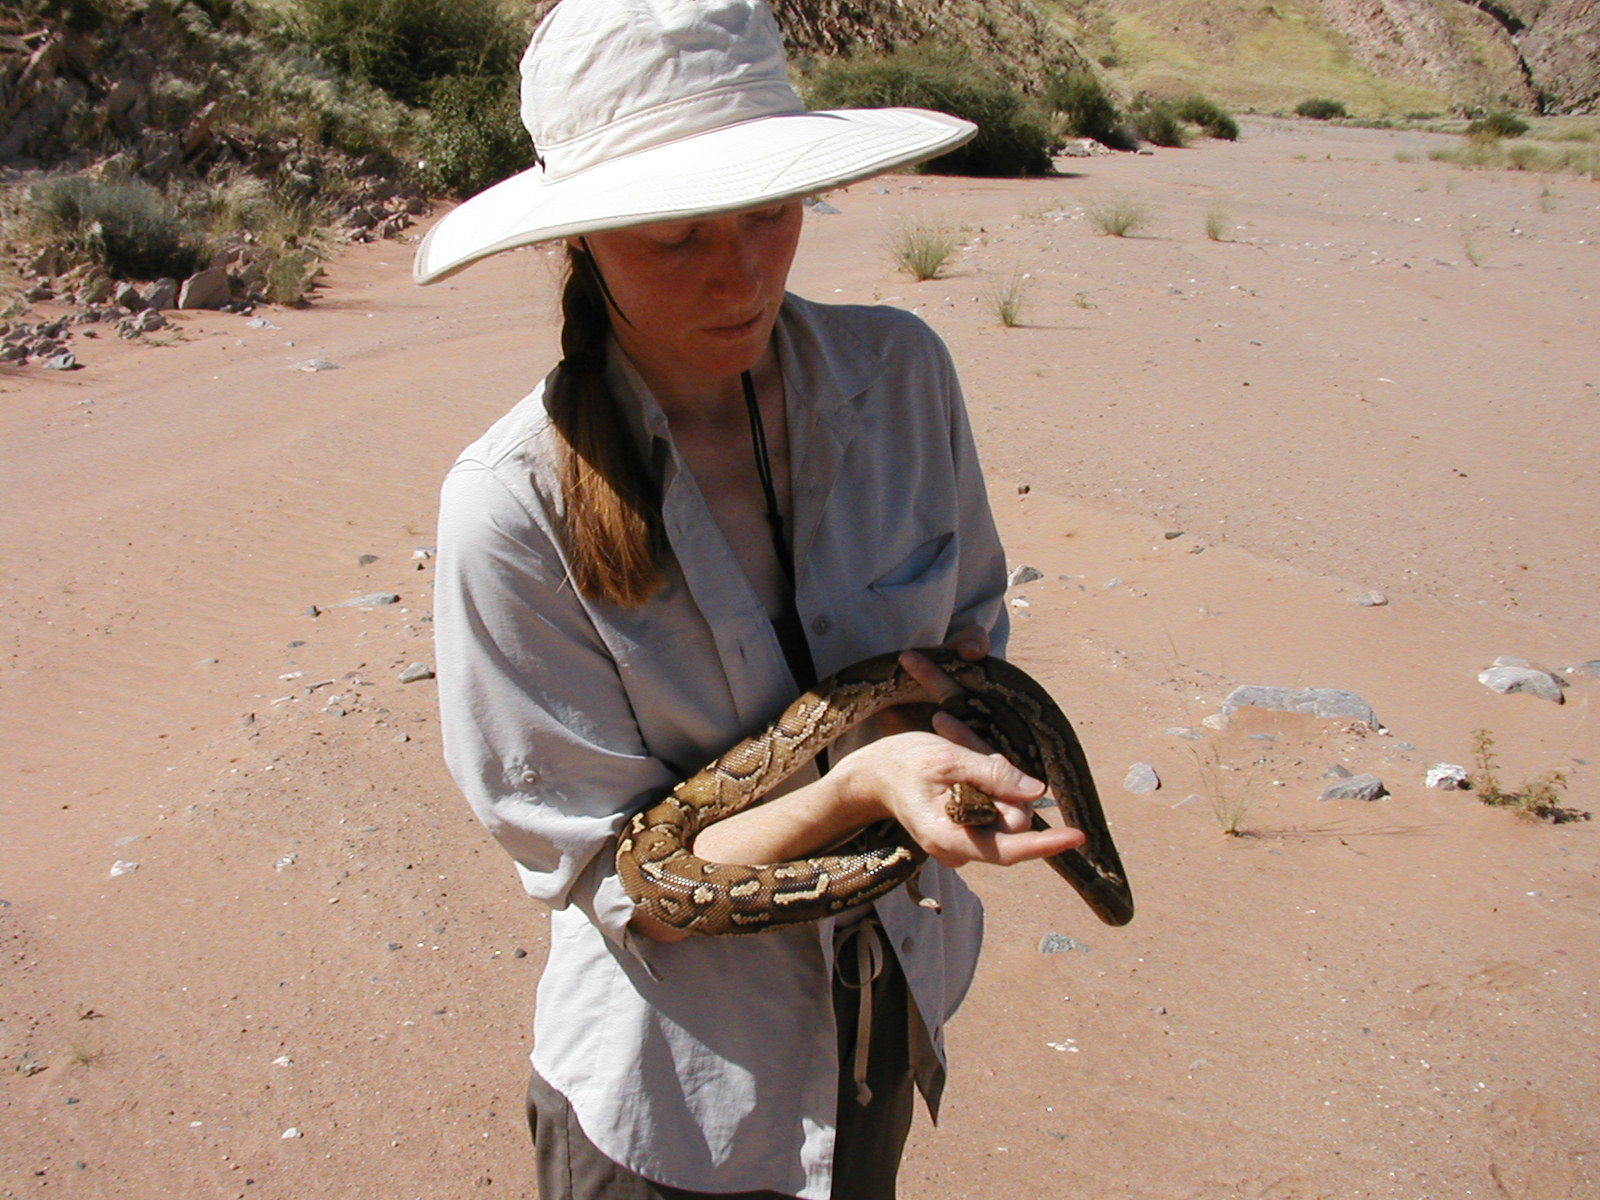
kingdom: Animalia
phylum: Chordata
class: Squamata
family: Pythonidae
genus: Python
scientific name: Python anchietae
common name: Anchieta's dwarf python
